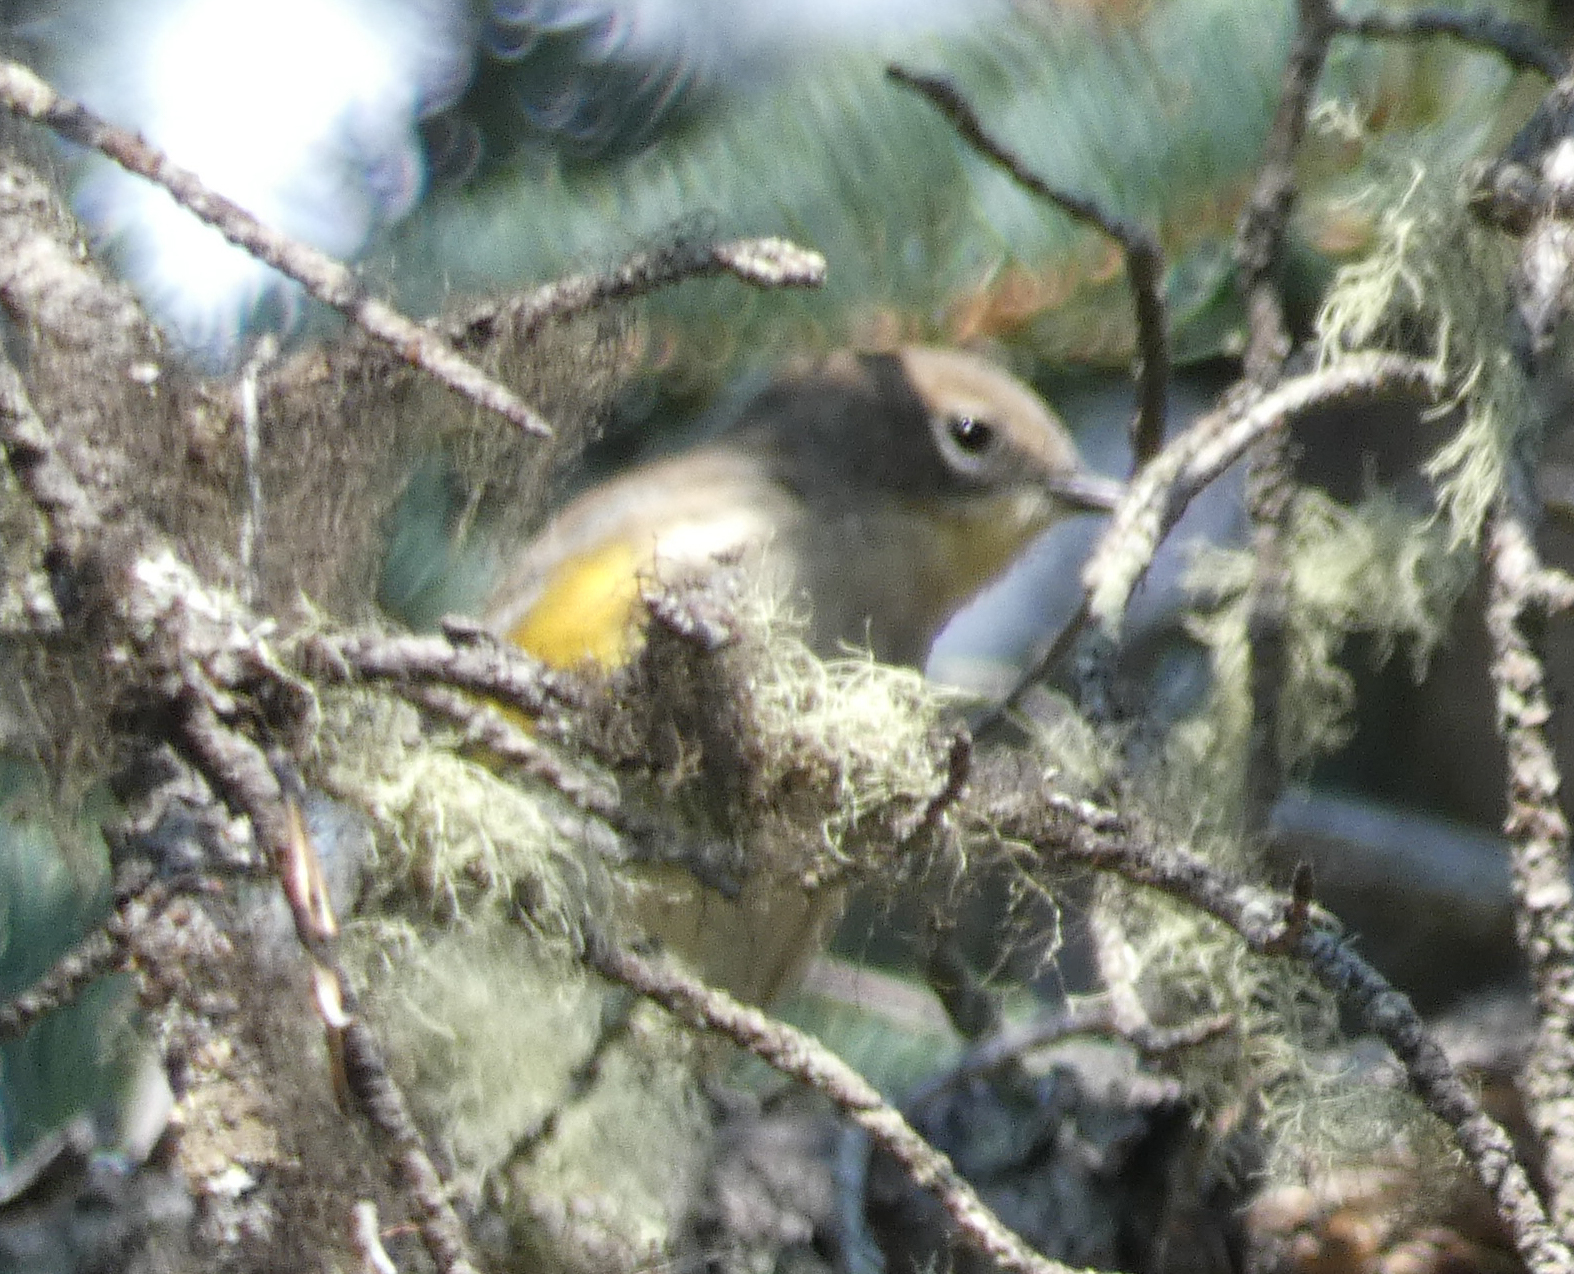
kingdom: Animalia
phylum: Chordata
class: Aves
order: Passeriformes
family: Parulidae
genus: Setophaga
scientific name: Setophaga coronata
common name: Myrtle warbler
